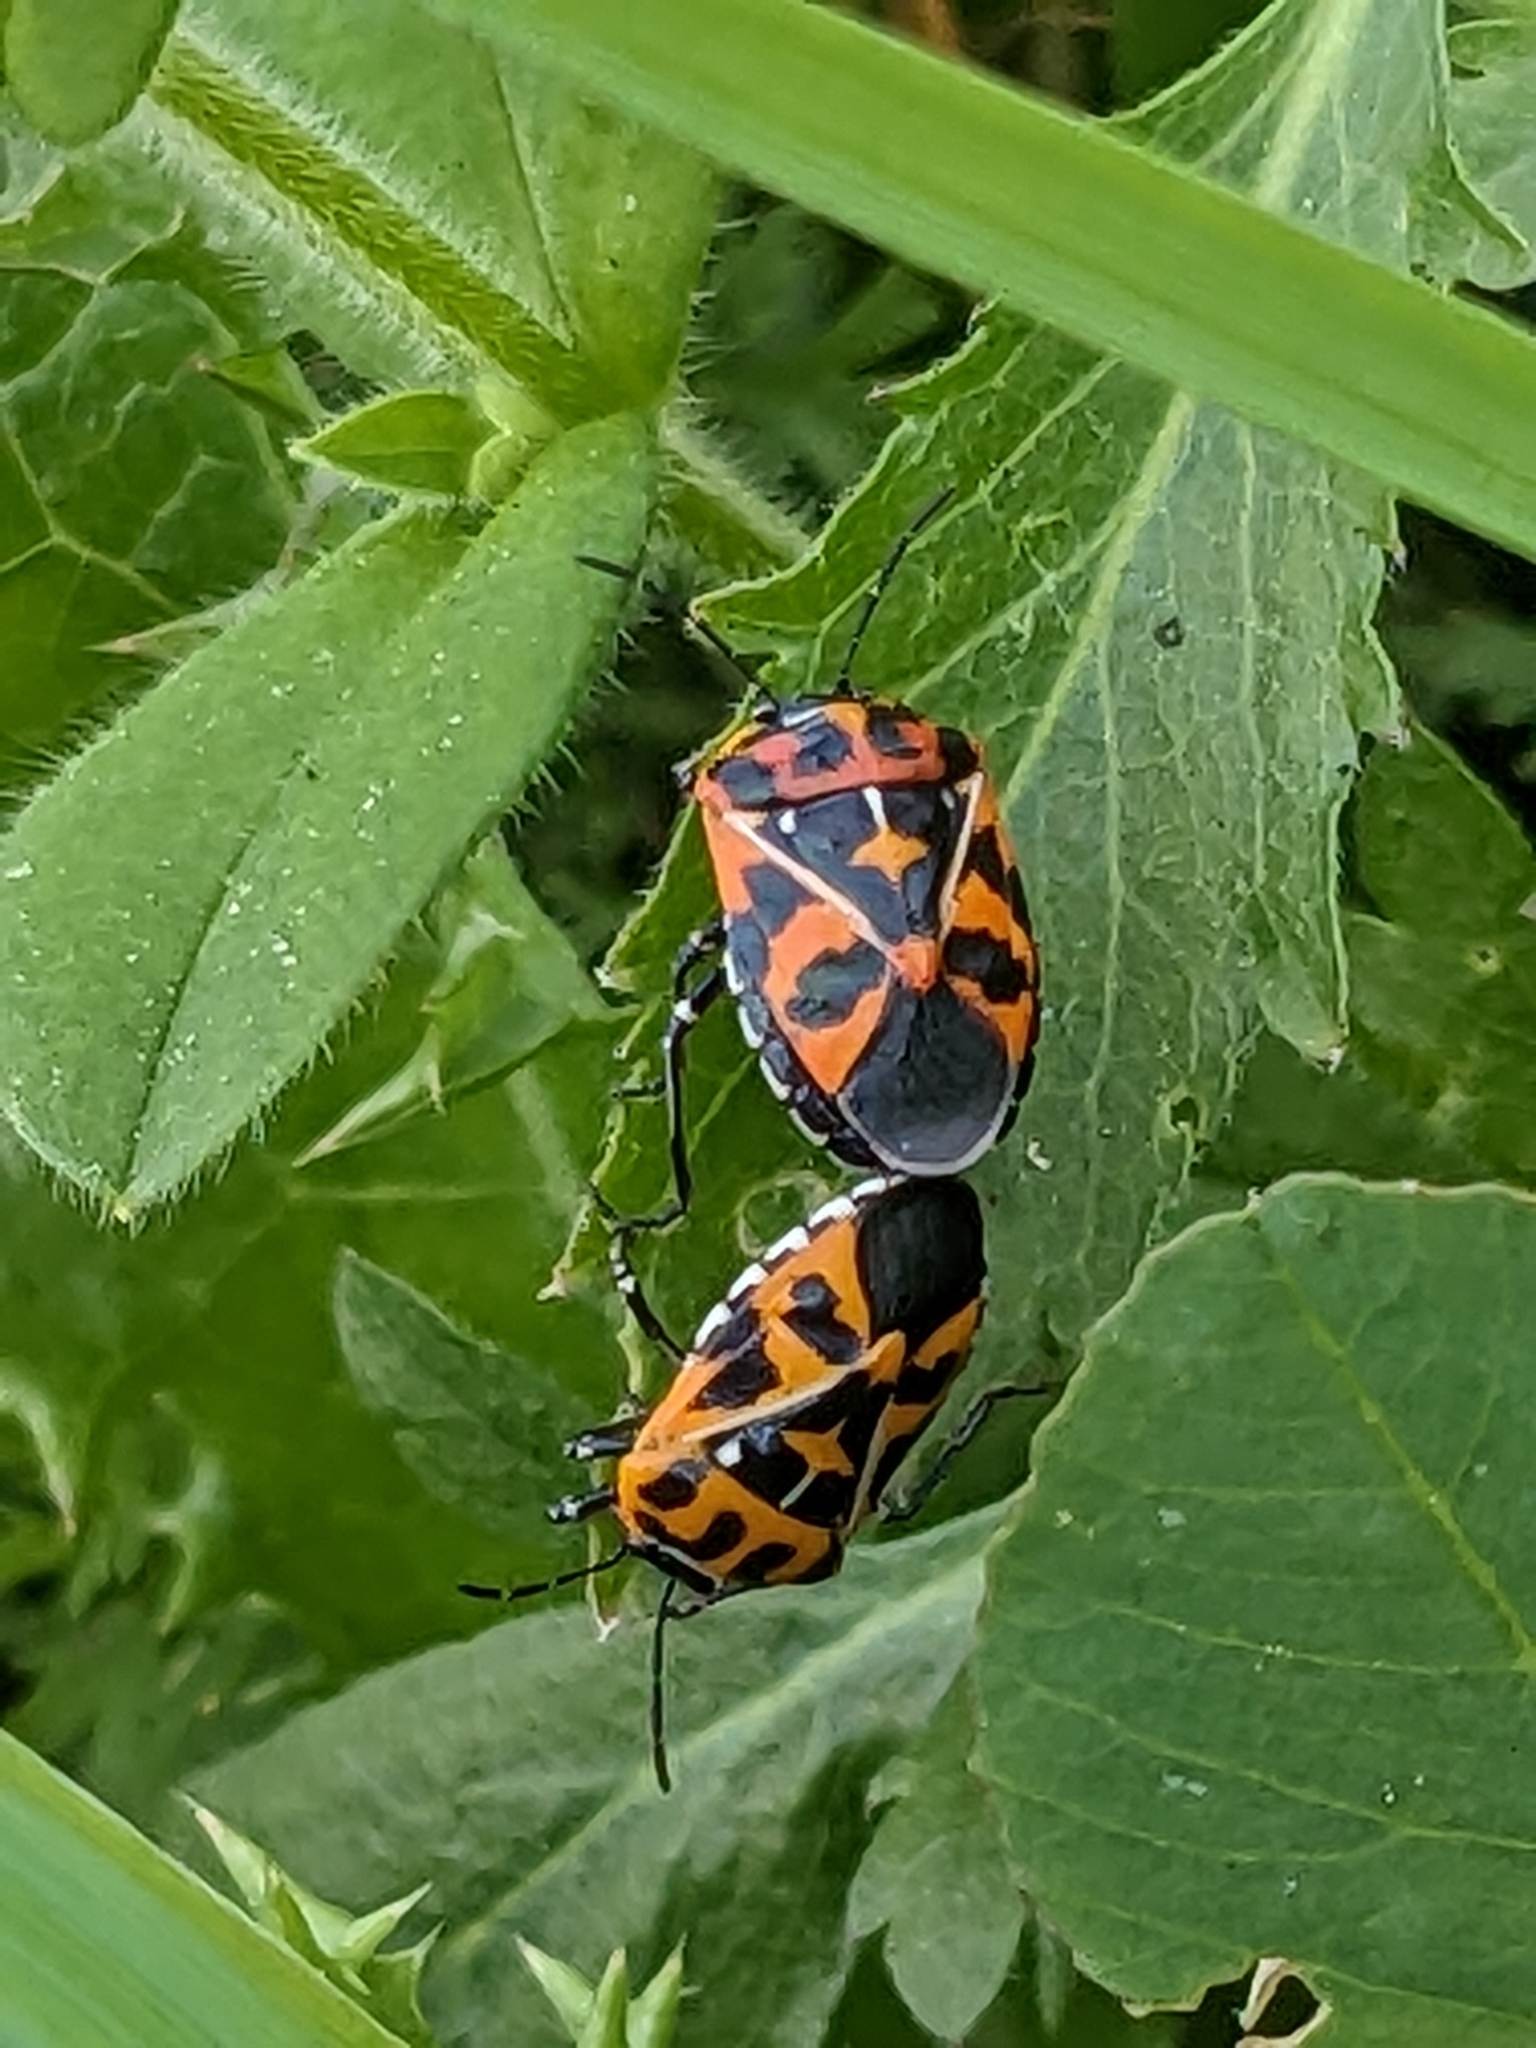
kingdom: Animalia
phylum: Arthropoda
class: Insecta
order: Hemiptera
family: Pentatomidae
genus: Murgantia
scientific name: Murgantia histrionica
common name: Harlequin bug
